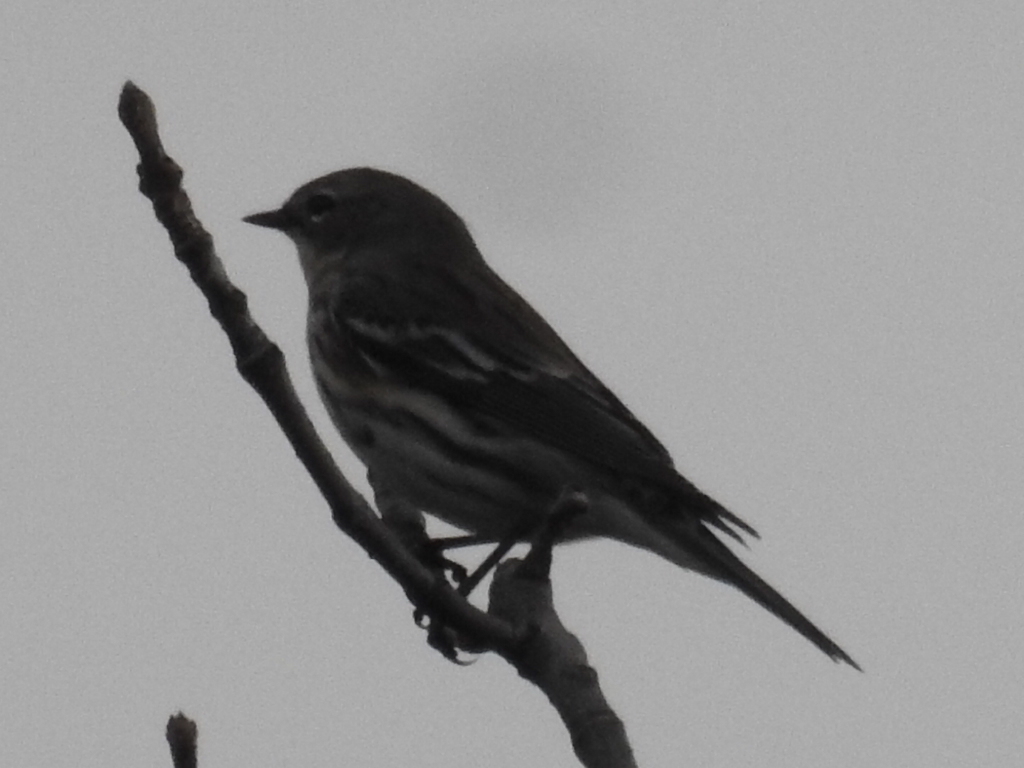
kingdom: Animalia
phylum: Chordata
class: Aves
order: Passeriformes
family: Parulidae
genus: Setophaga
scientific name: Setophaga coronata
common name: Myrtle warbler
